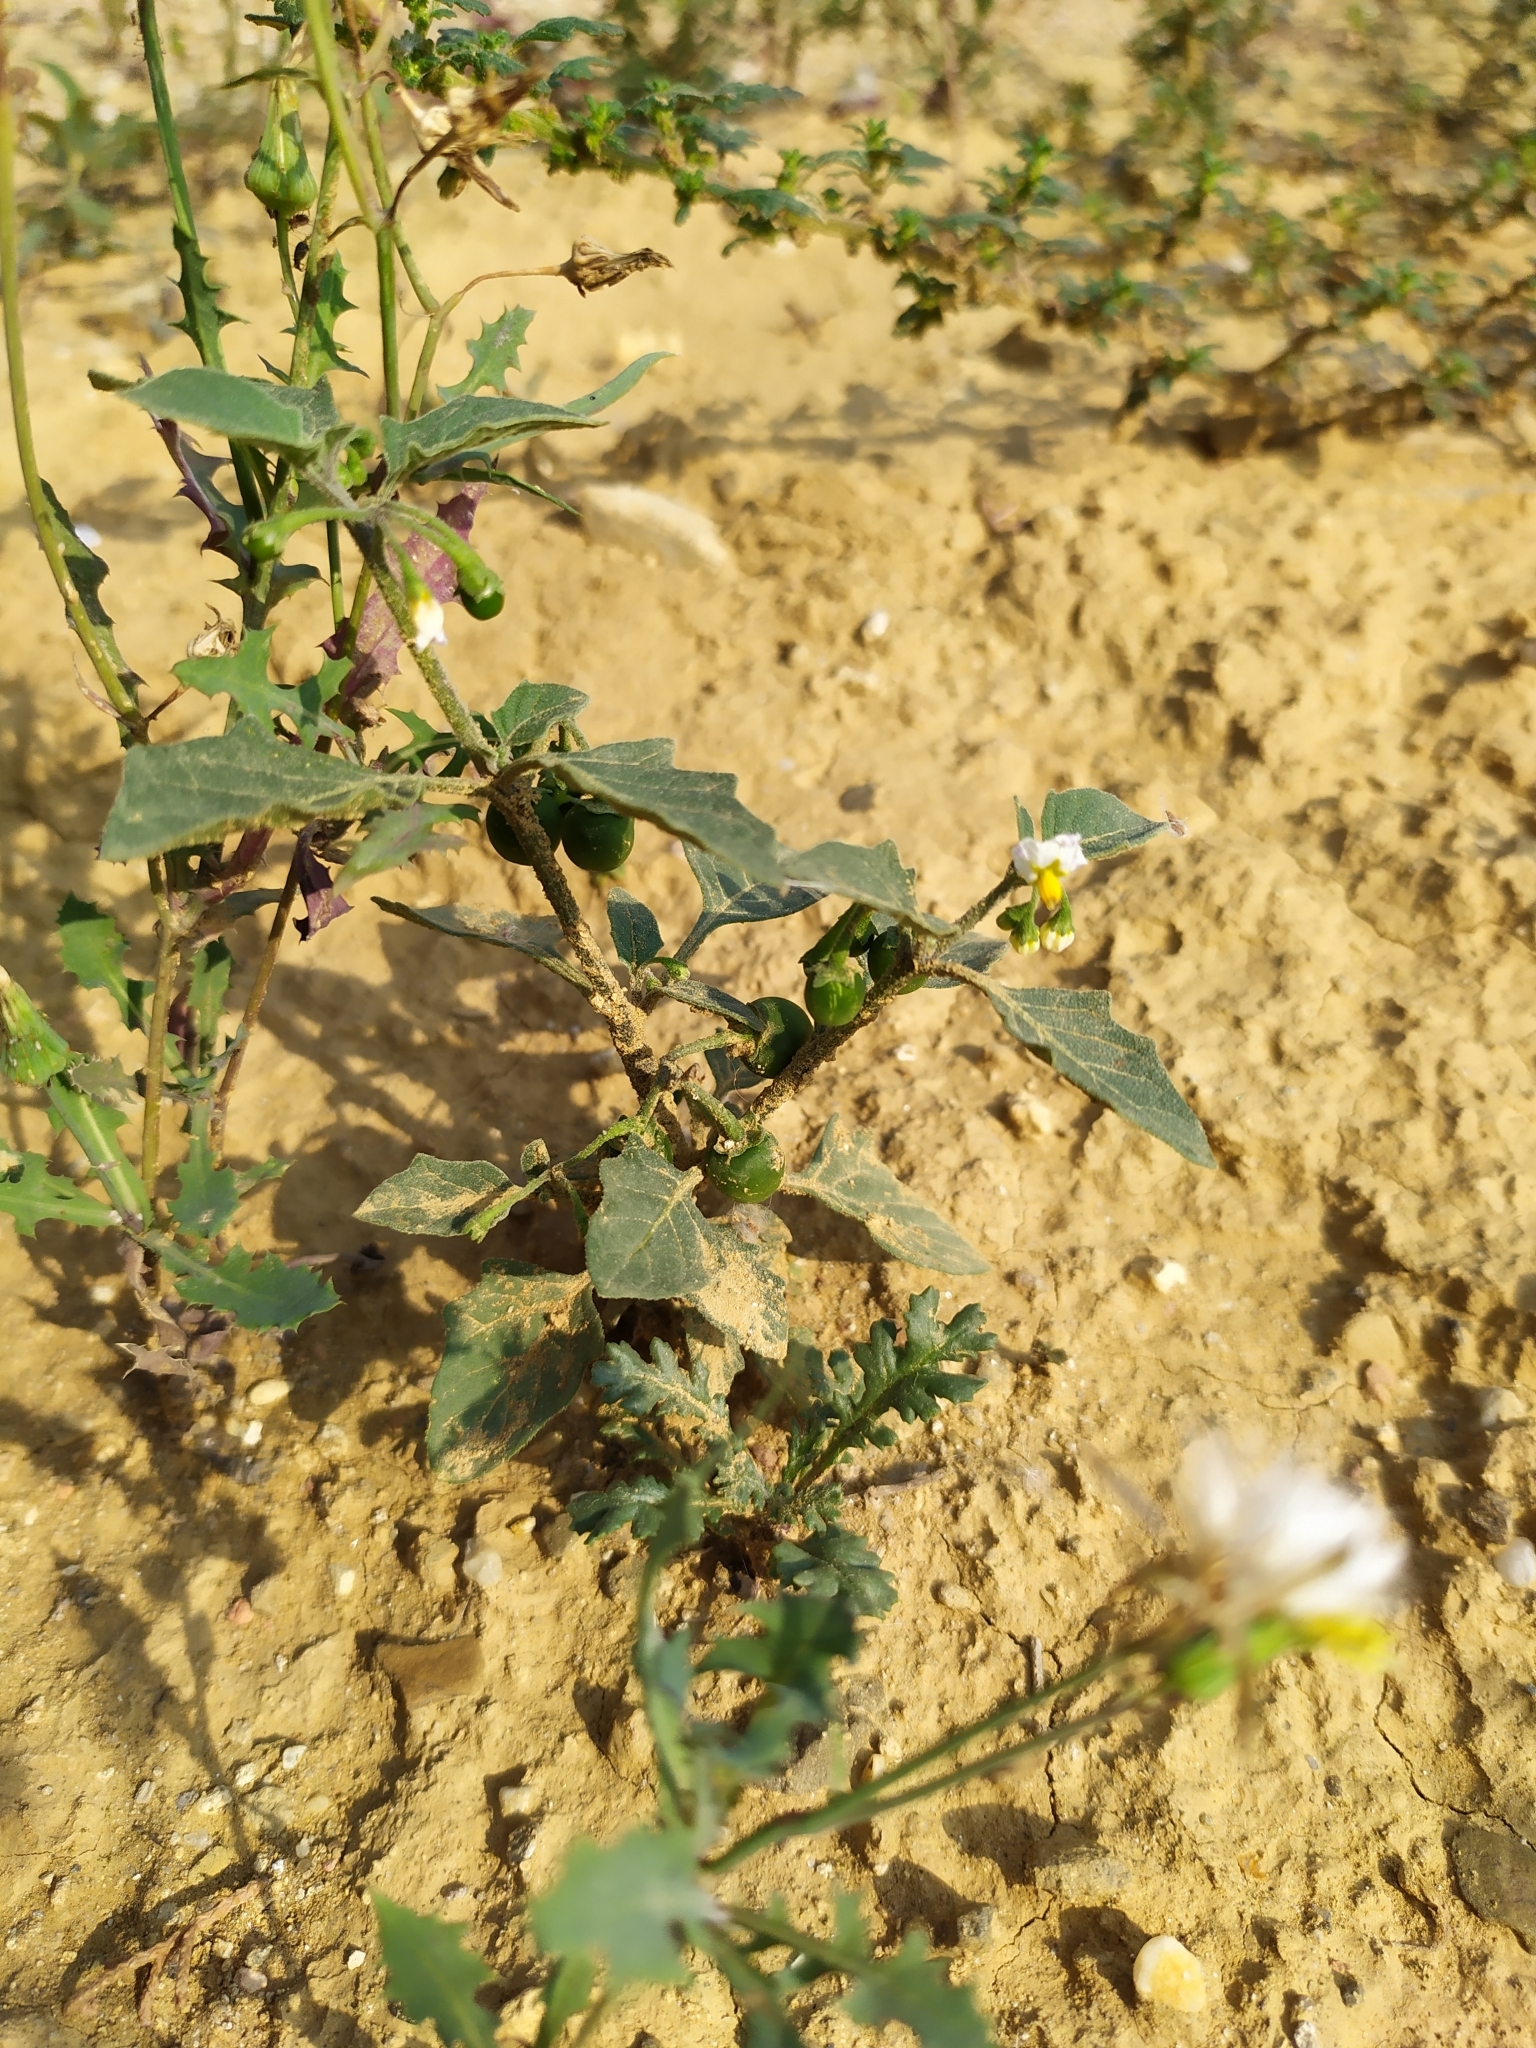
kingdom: Plantae
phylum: Tracheophyta
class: Magnoliopsida
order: Solanales
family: Solanaceae
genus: Solanum
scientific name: Solanum nigrum
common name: Black nightshade
